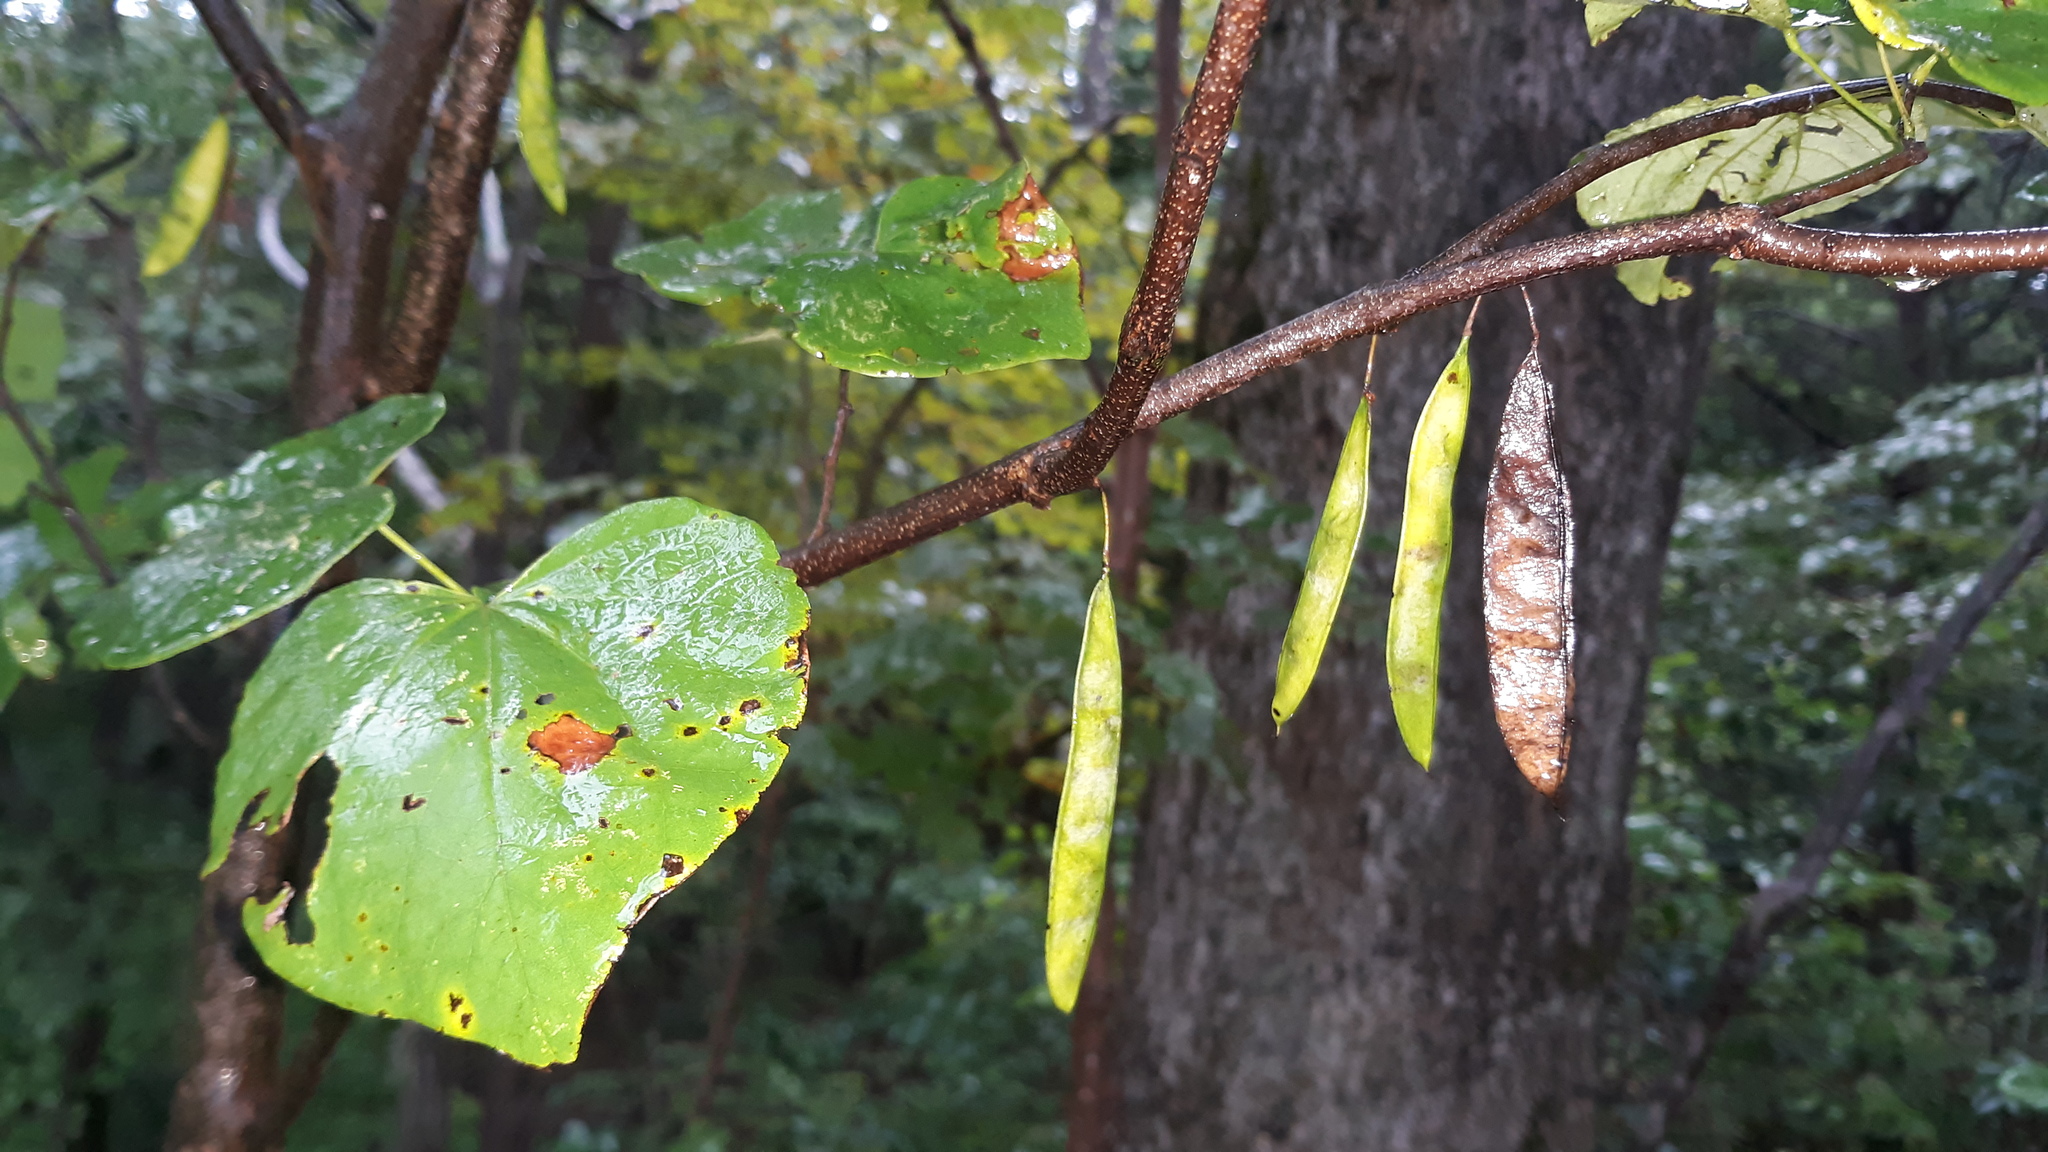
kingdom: Plantae
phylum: Tracheophyta
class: Magnoliopsida
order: Fabales
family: Fabaceae
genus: Cercis
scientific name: Cercis canadensis
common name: Eastern redbud
